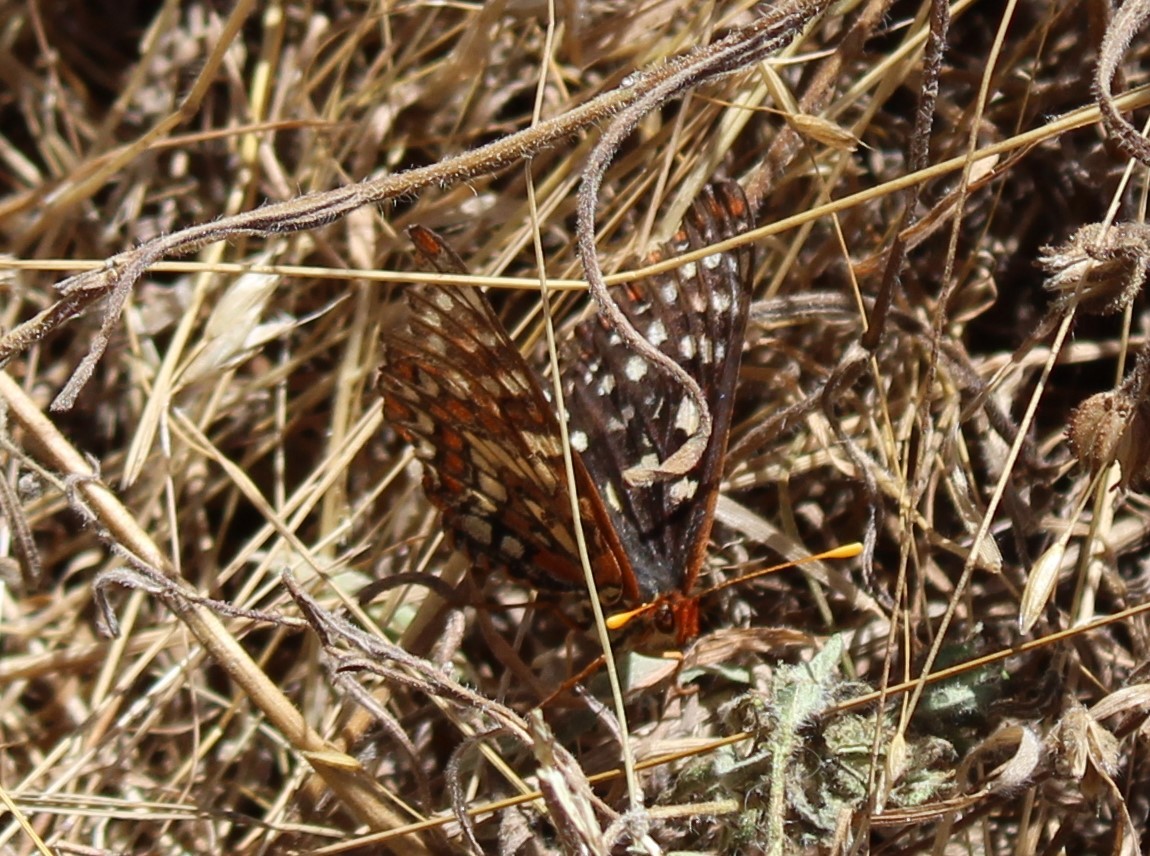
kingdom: Animalia
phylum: Arthropoda
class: Insecta
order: Lepidoptera
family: Nymphalidae
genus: Occidryas
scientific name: Occidryas chalcedona
